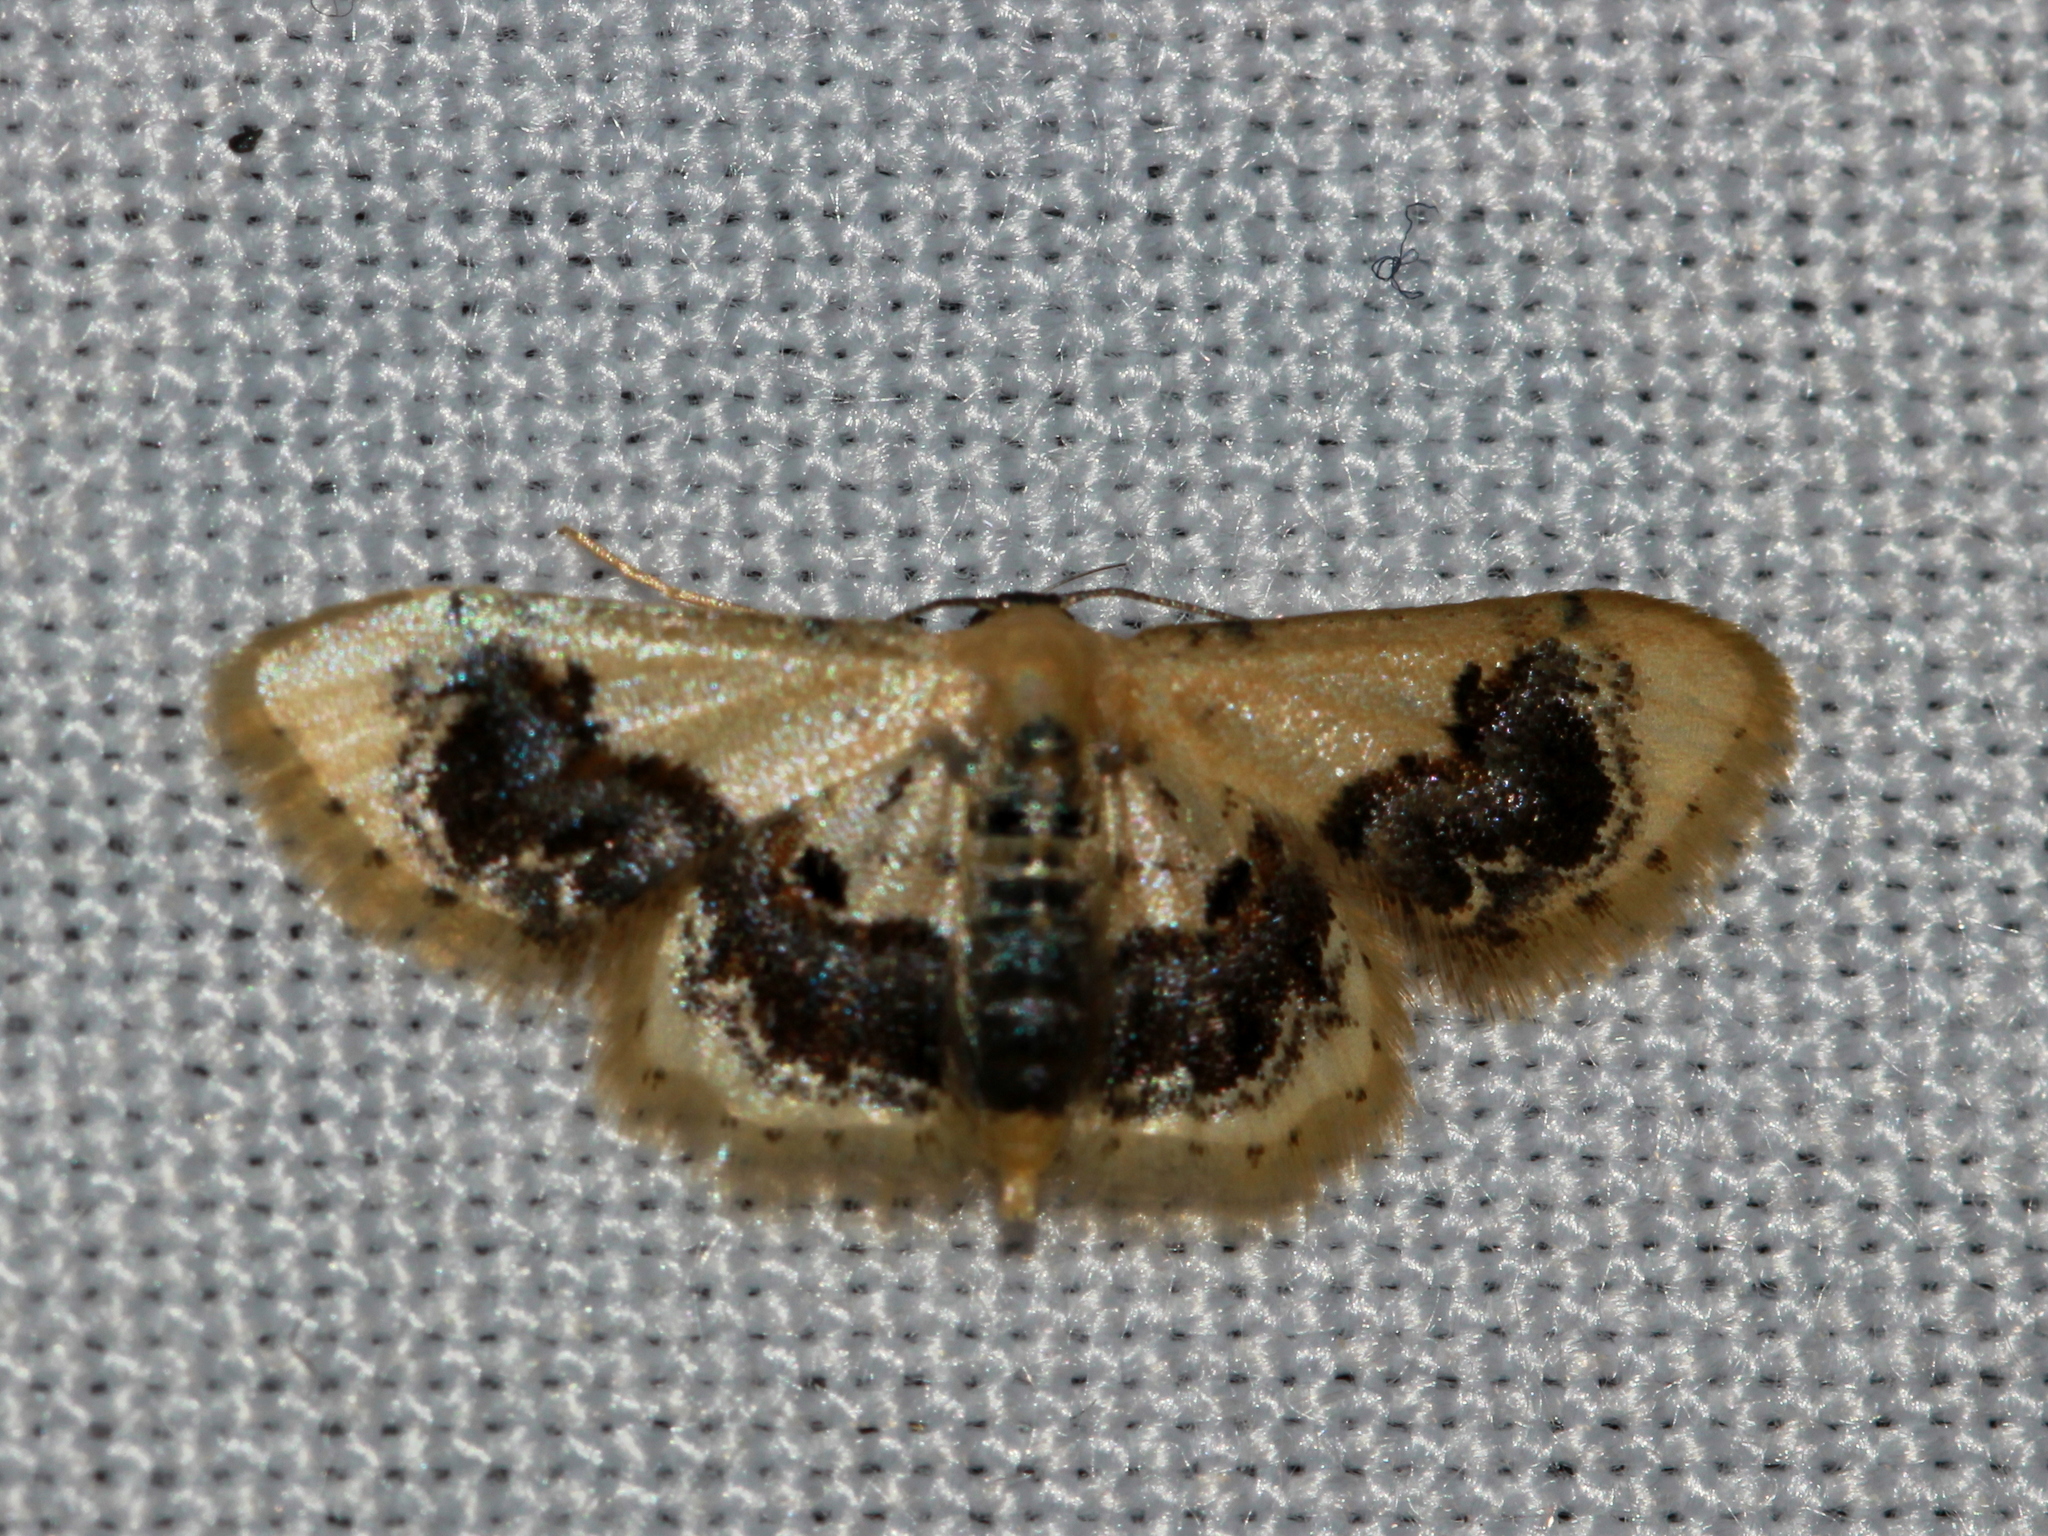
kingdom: Animalia
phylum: Arthropoda
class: Insecta
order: Lepidoptera
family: Geometridae
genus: Idaea
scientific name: Idaea macrospila
